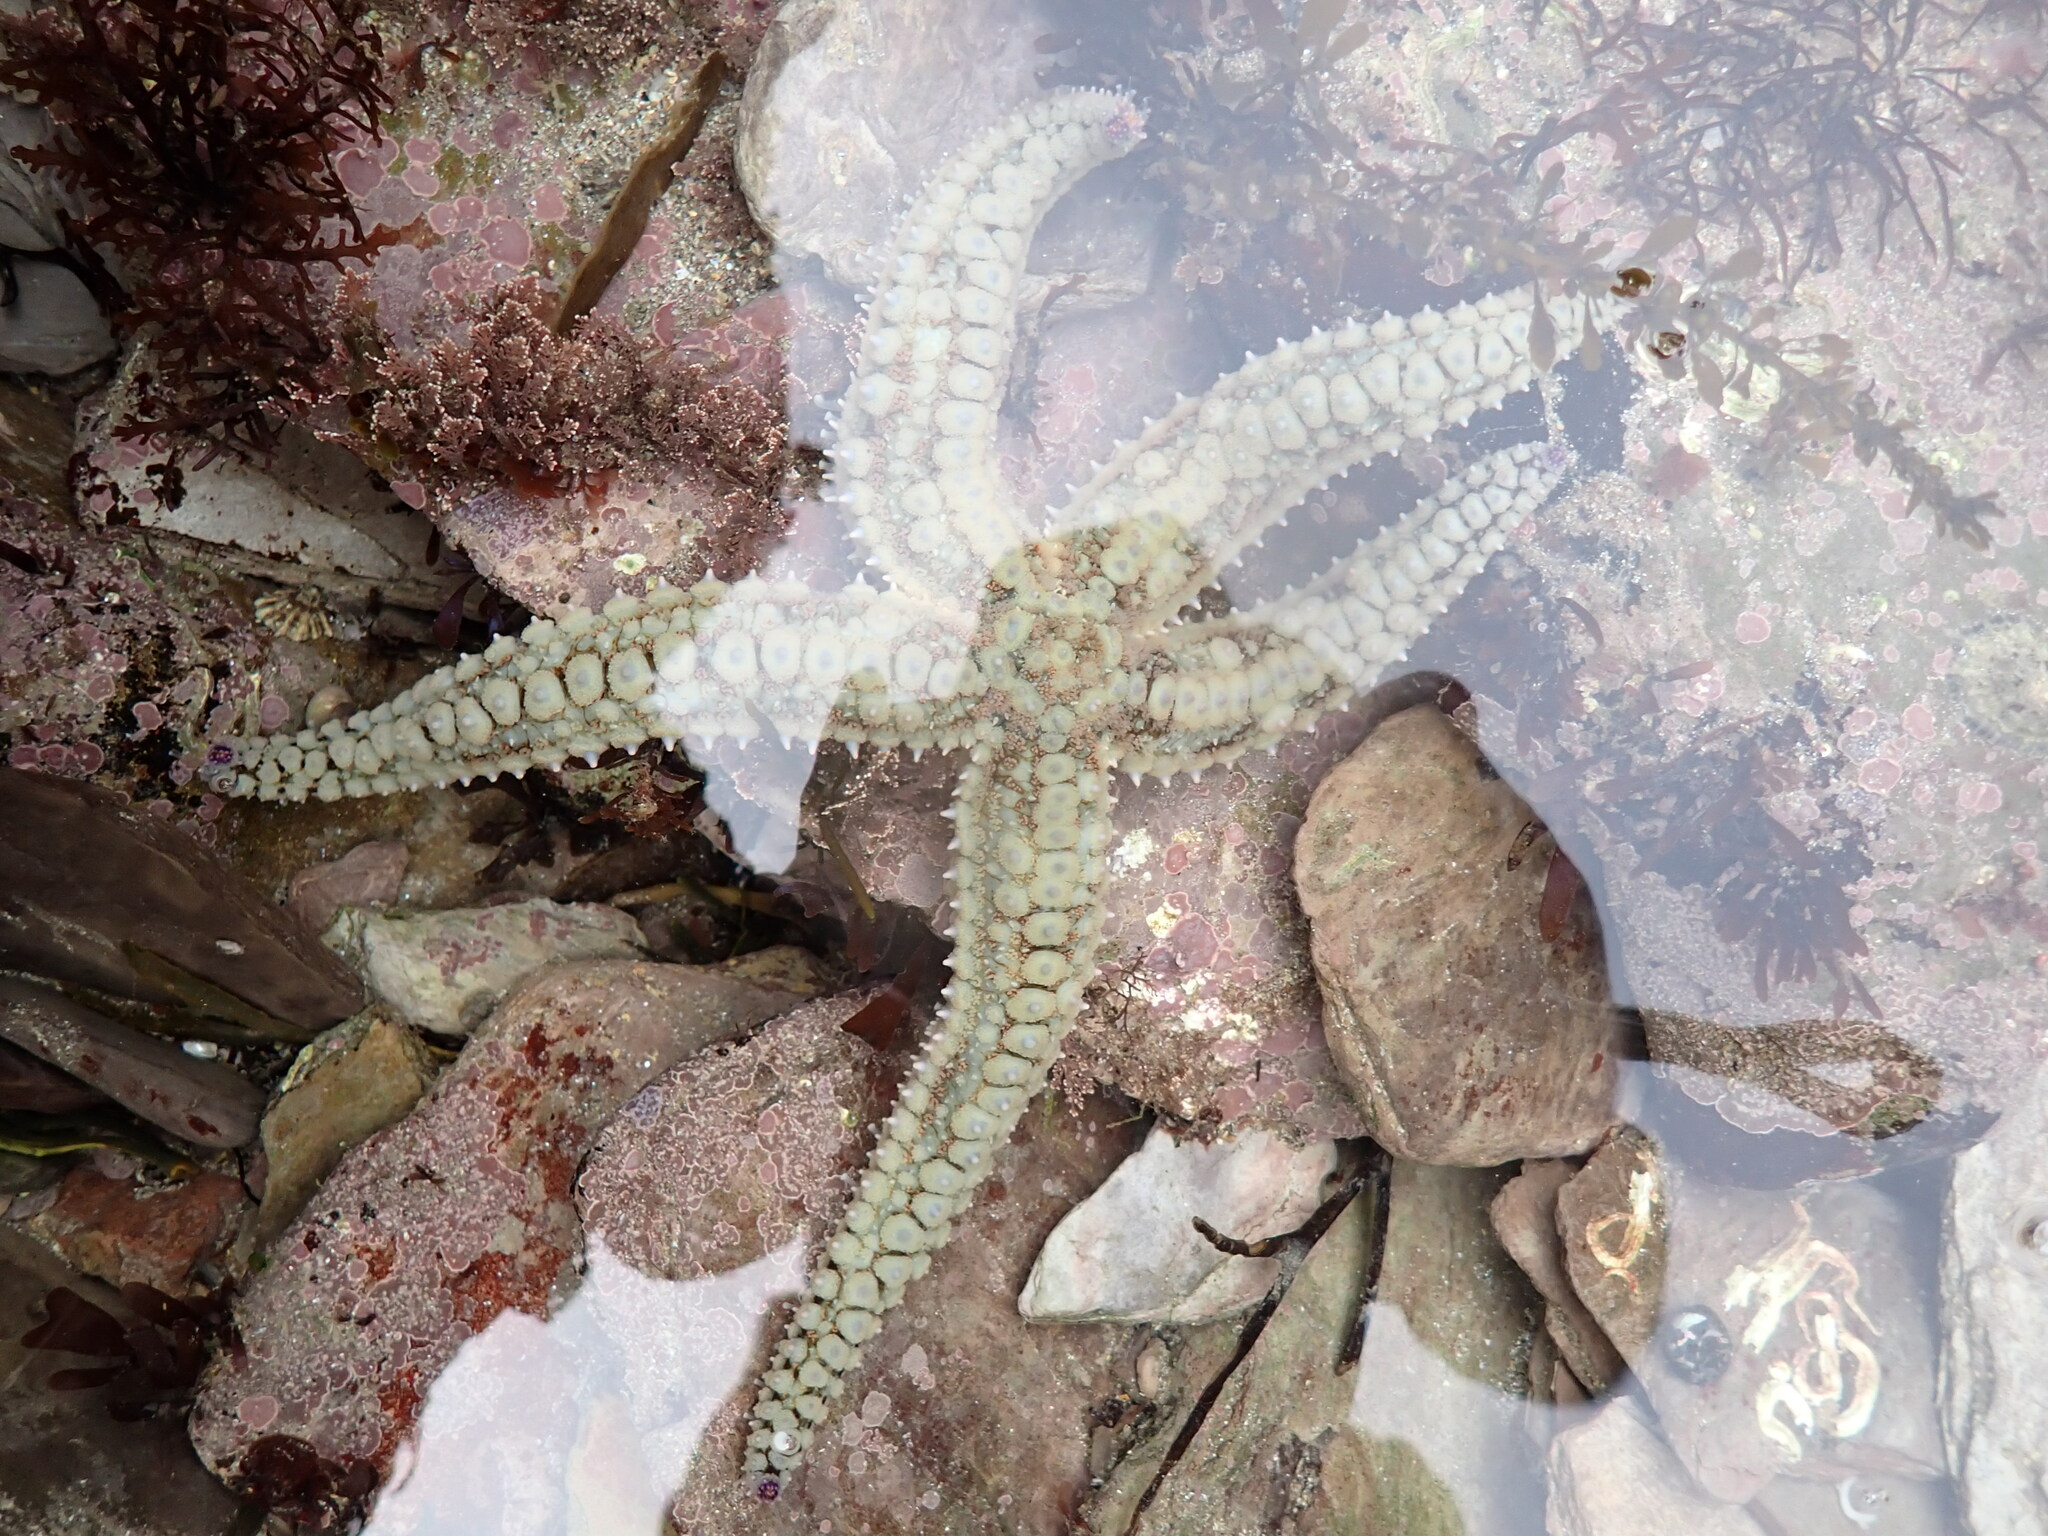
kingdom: Animalia
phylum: Echinodermata
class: Asteroidea
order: Forcipulatida
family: Asteriidae
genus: Marthasterias
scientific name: Marthasterias glacialis
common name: Spiny starfish
